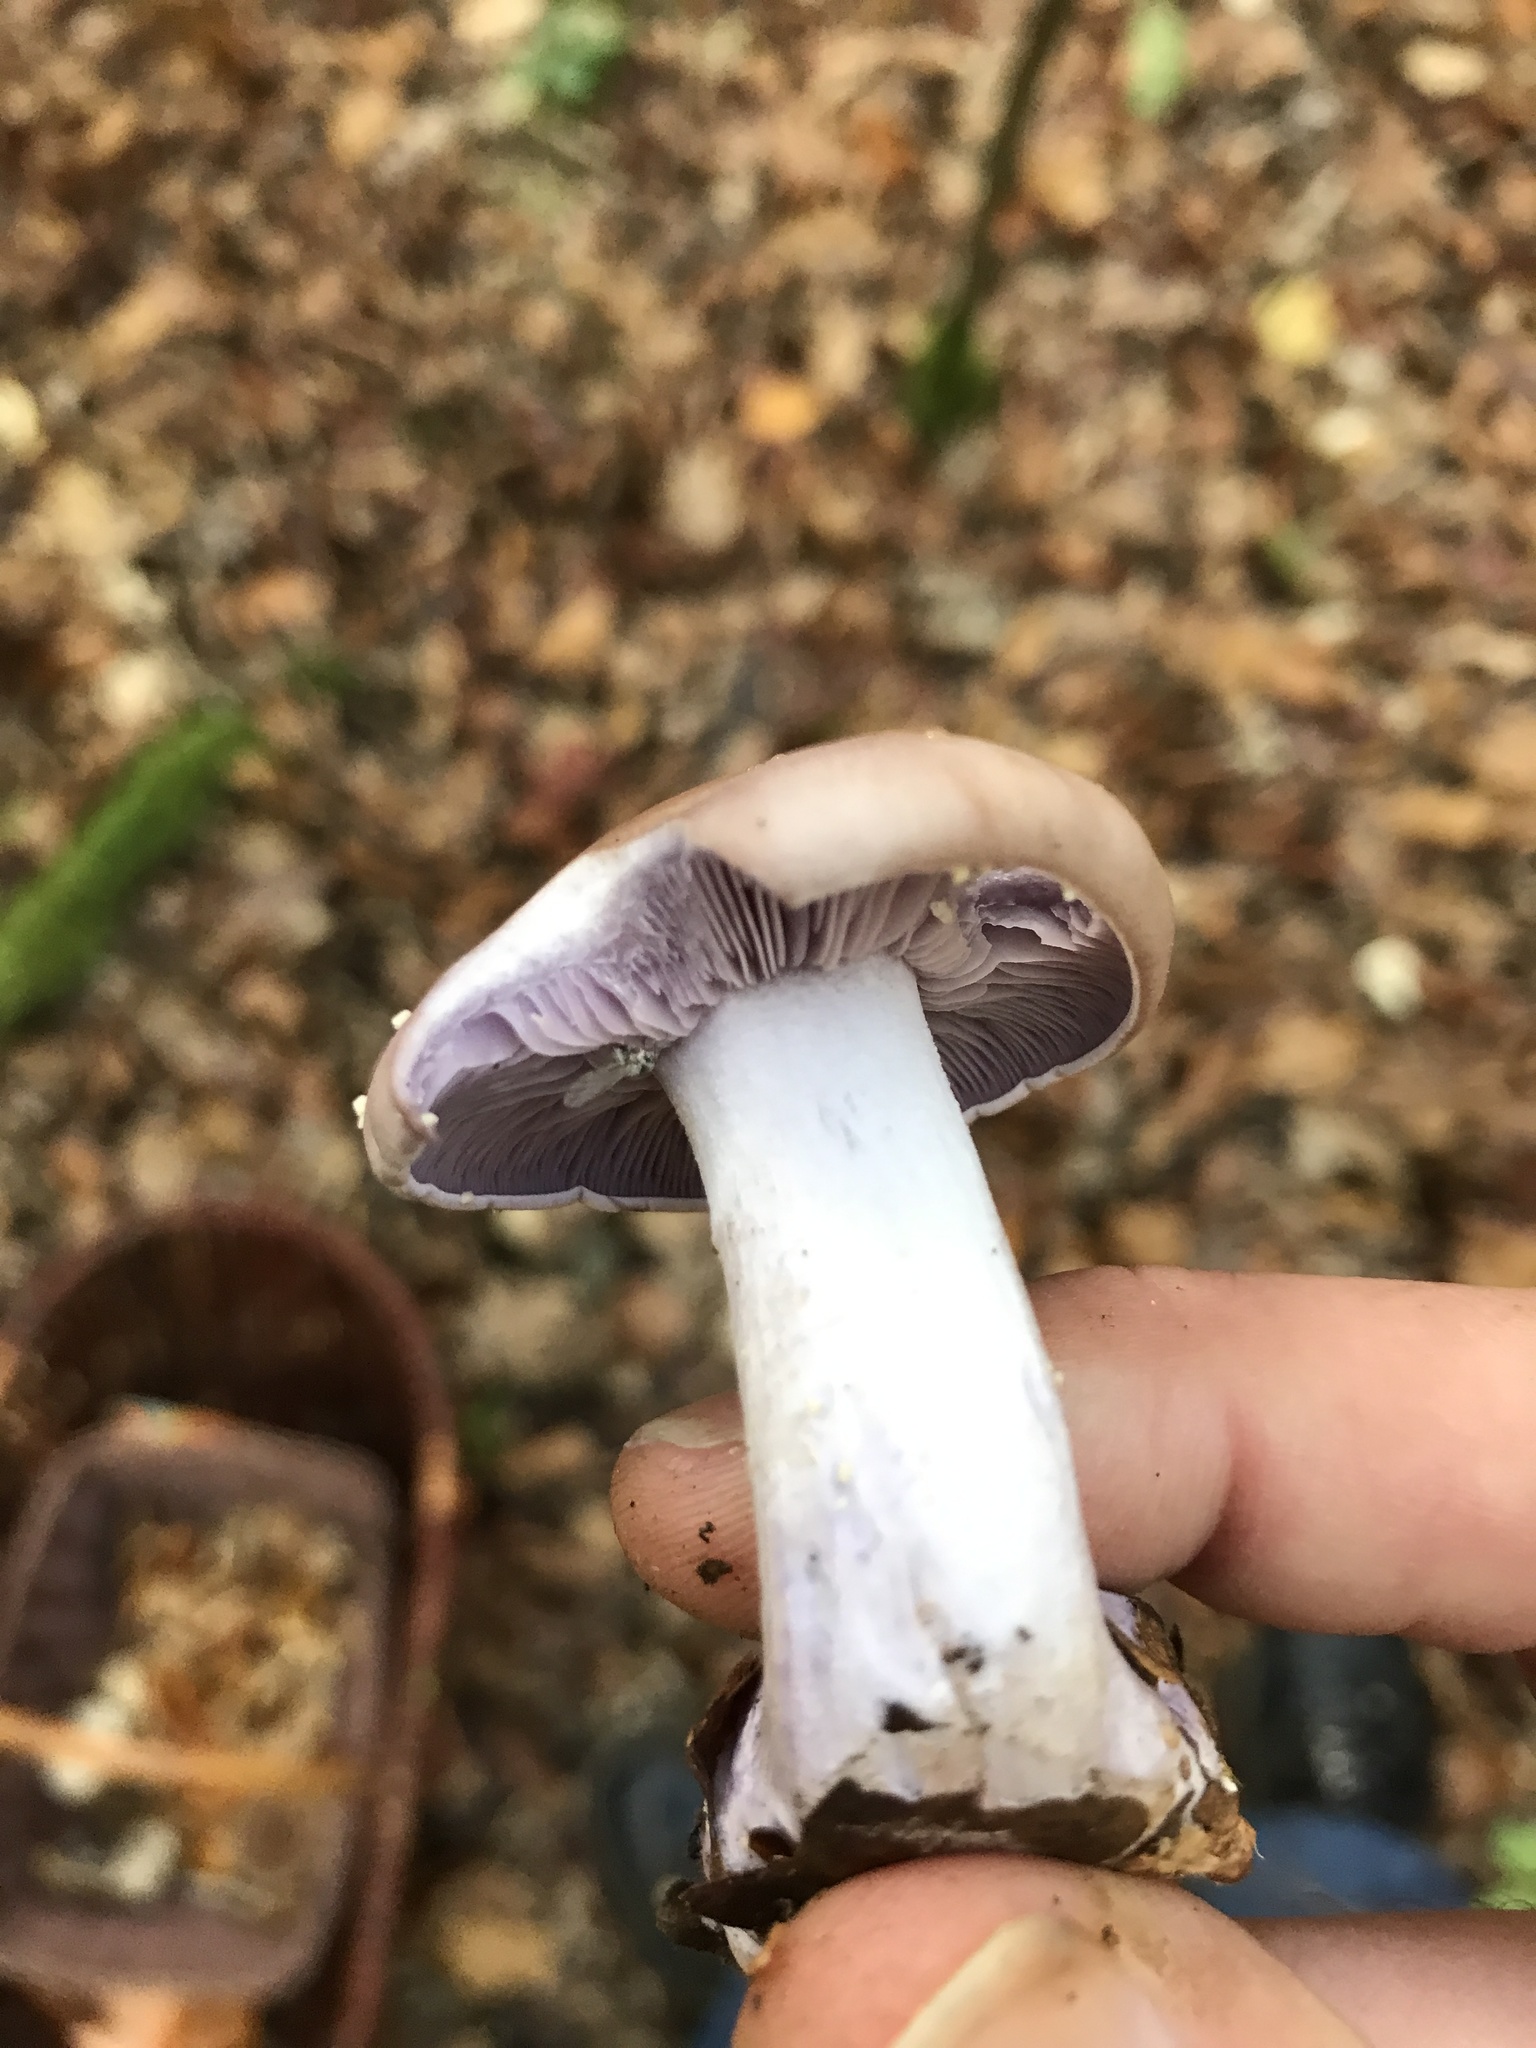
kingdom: Fungi
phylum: Basidiomycota
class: Agaricomycetes
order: Agaricales
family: Tricholomataceae
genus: Collybia
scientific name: Collybia
